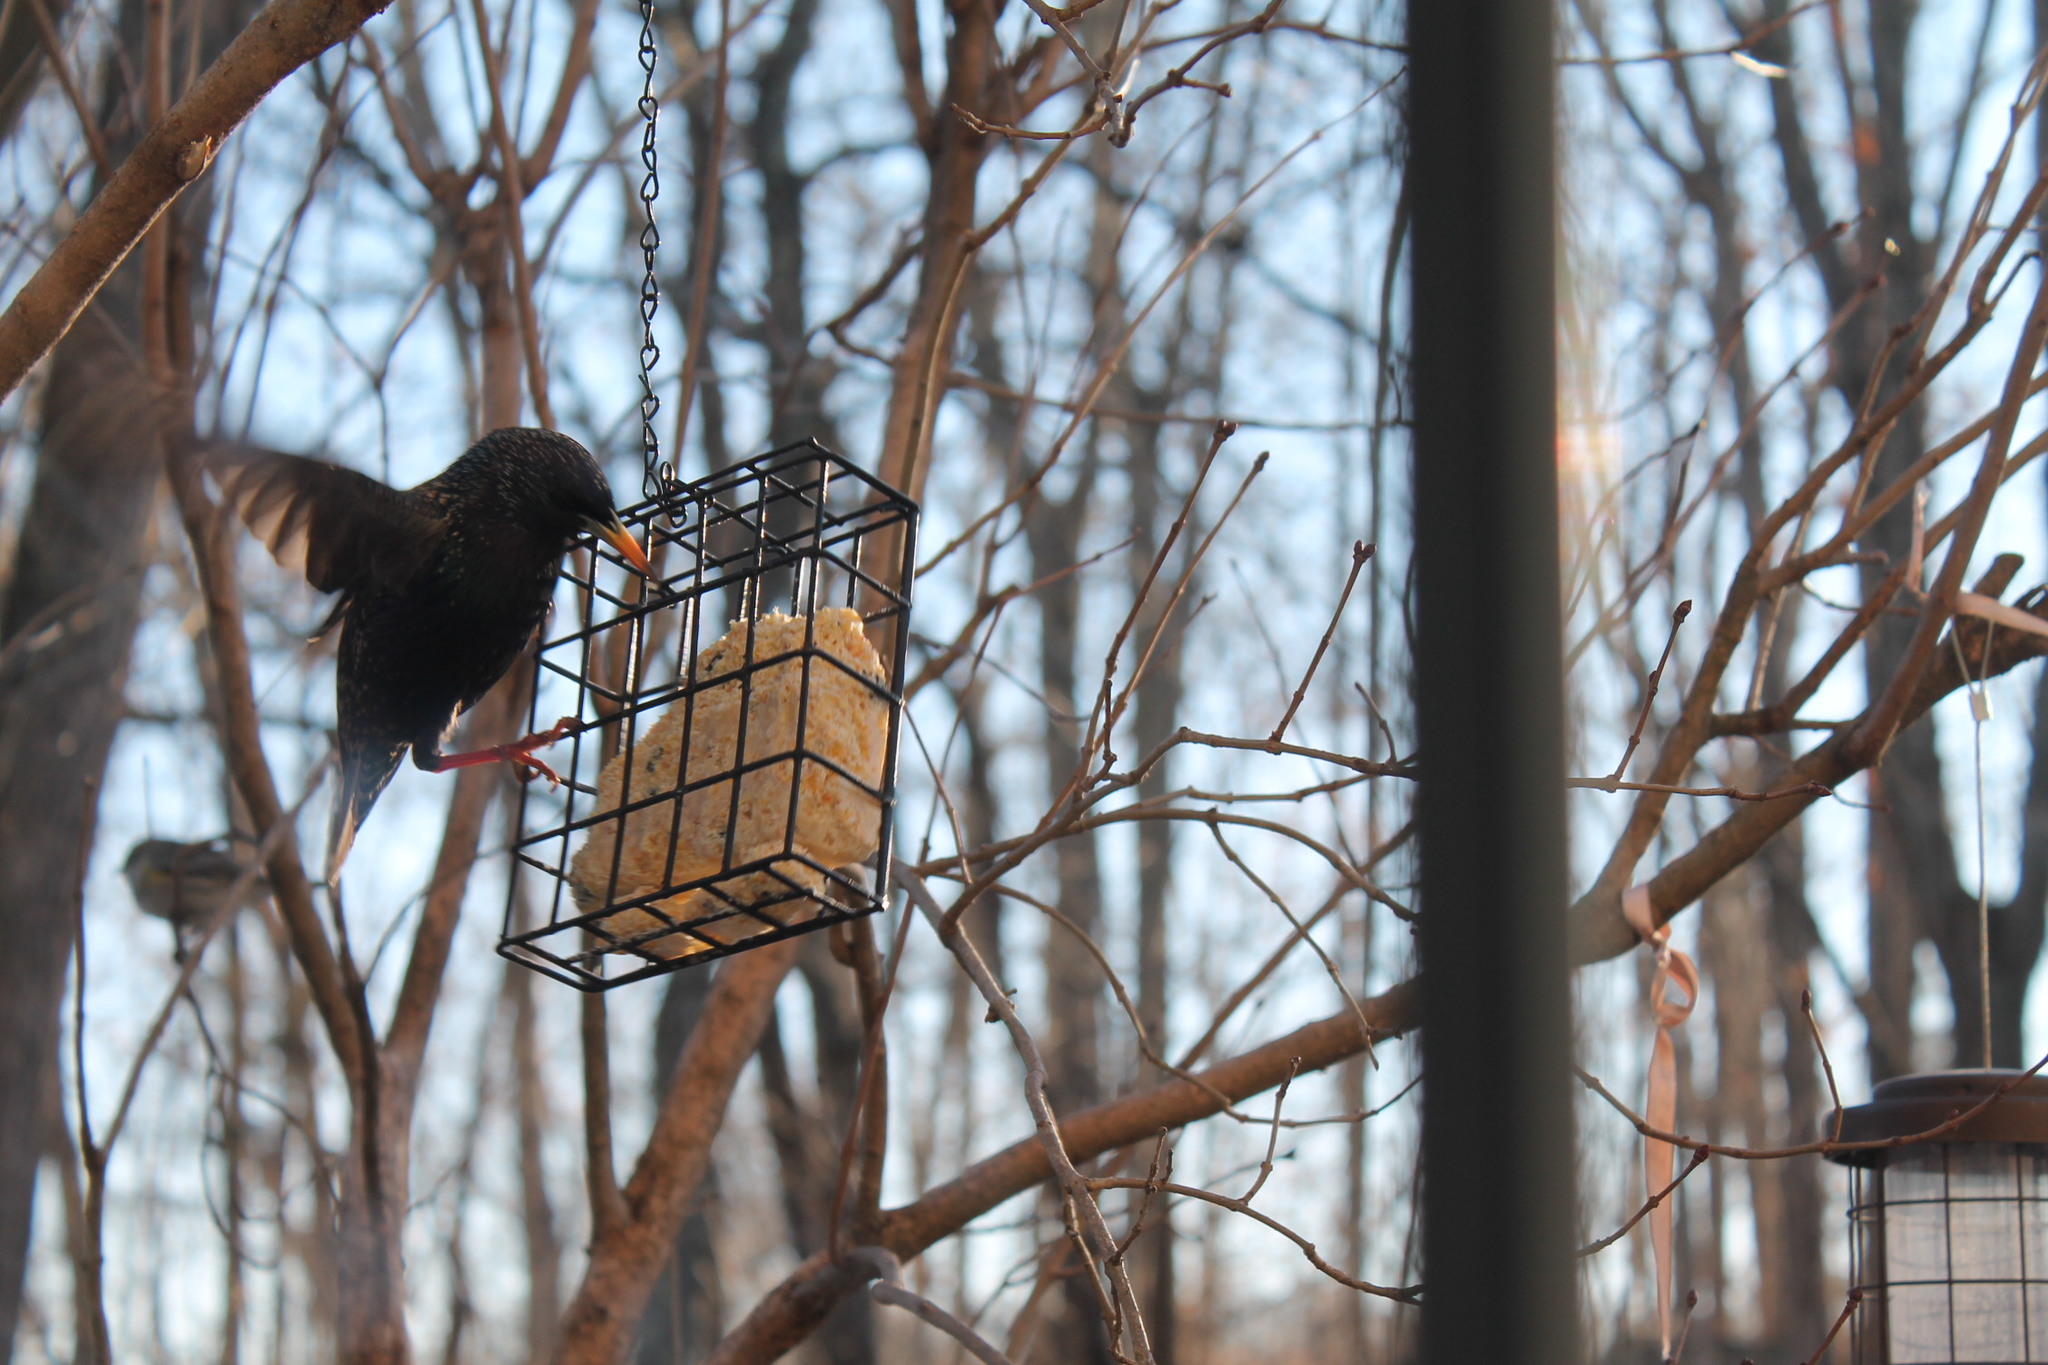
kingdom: Animalia
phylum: Chordata
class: Aves
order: Passeriformes
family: Sturnidae
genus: Sturnus
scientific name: Sturnus vulgaris
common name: Common starling
